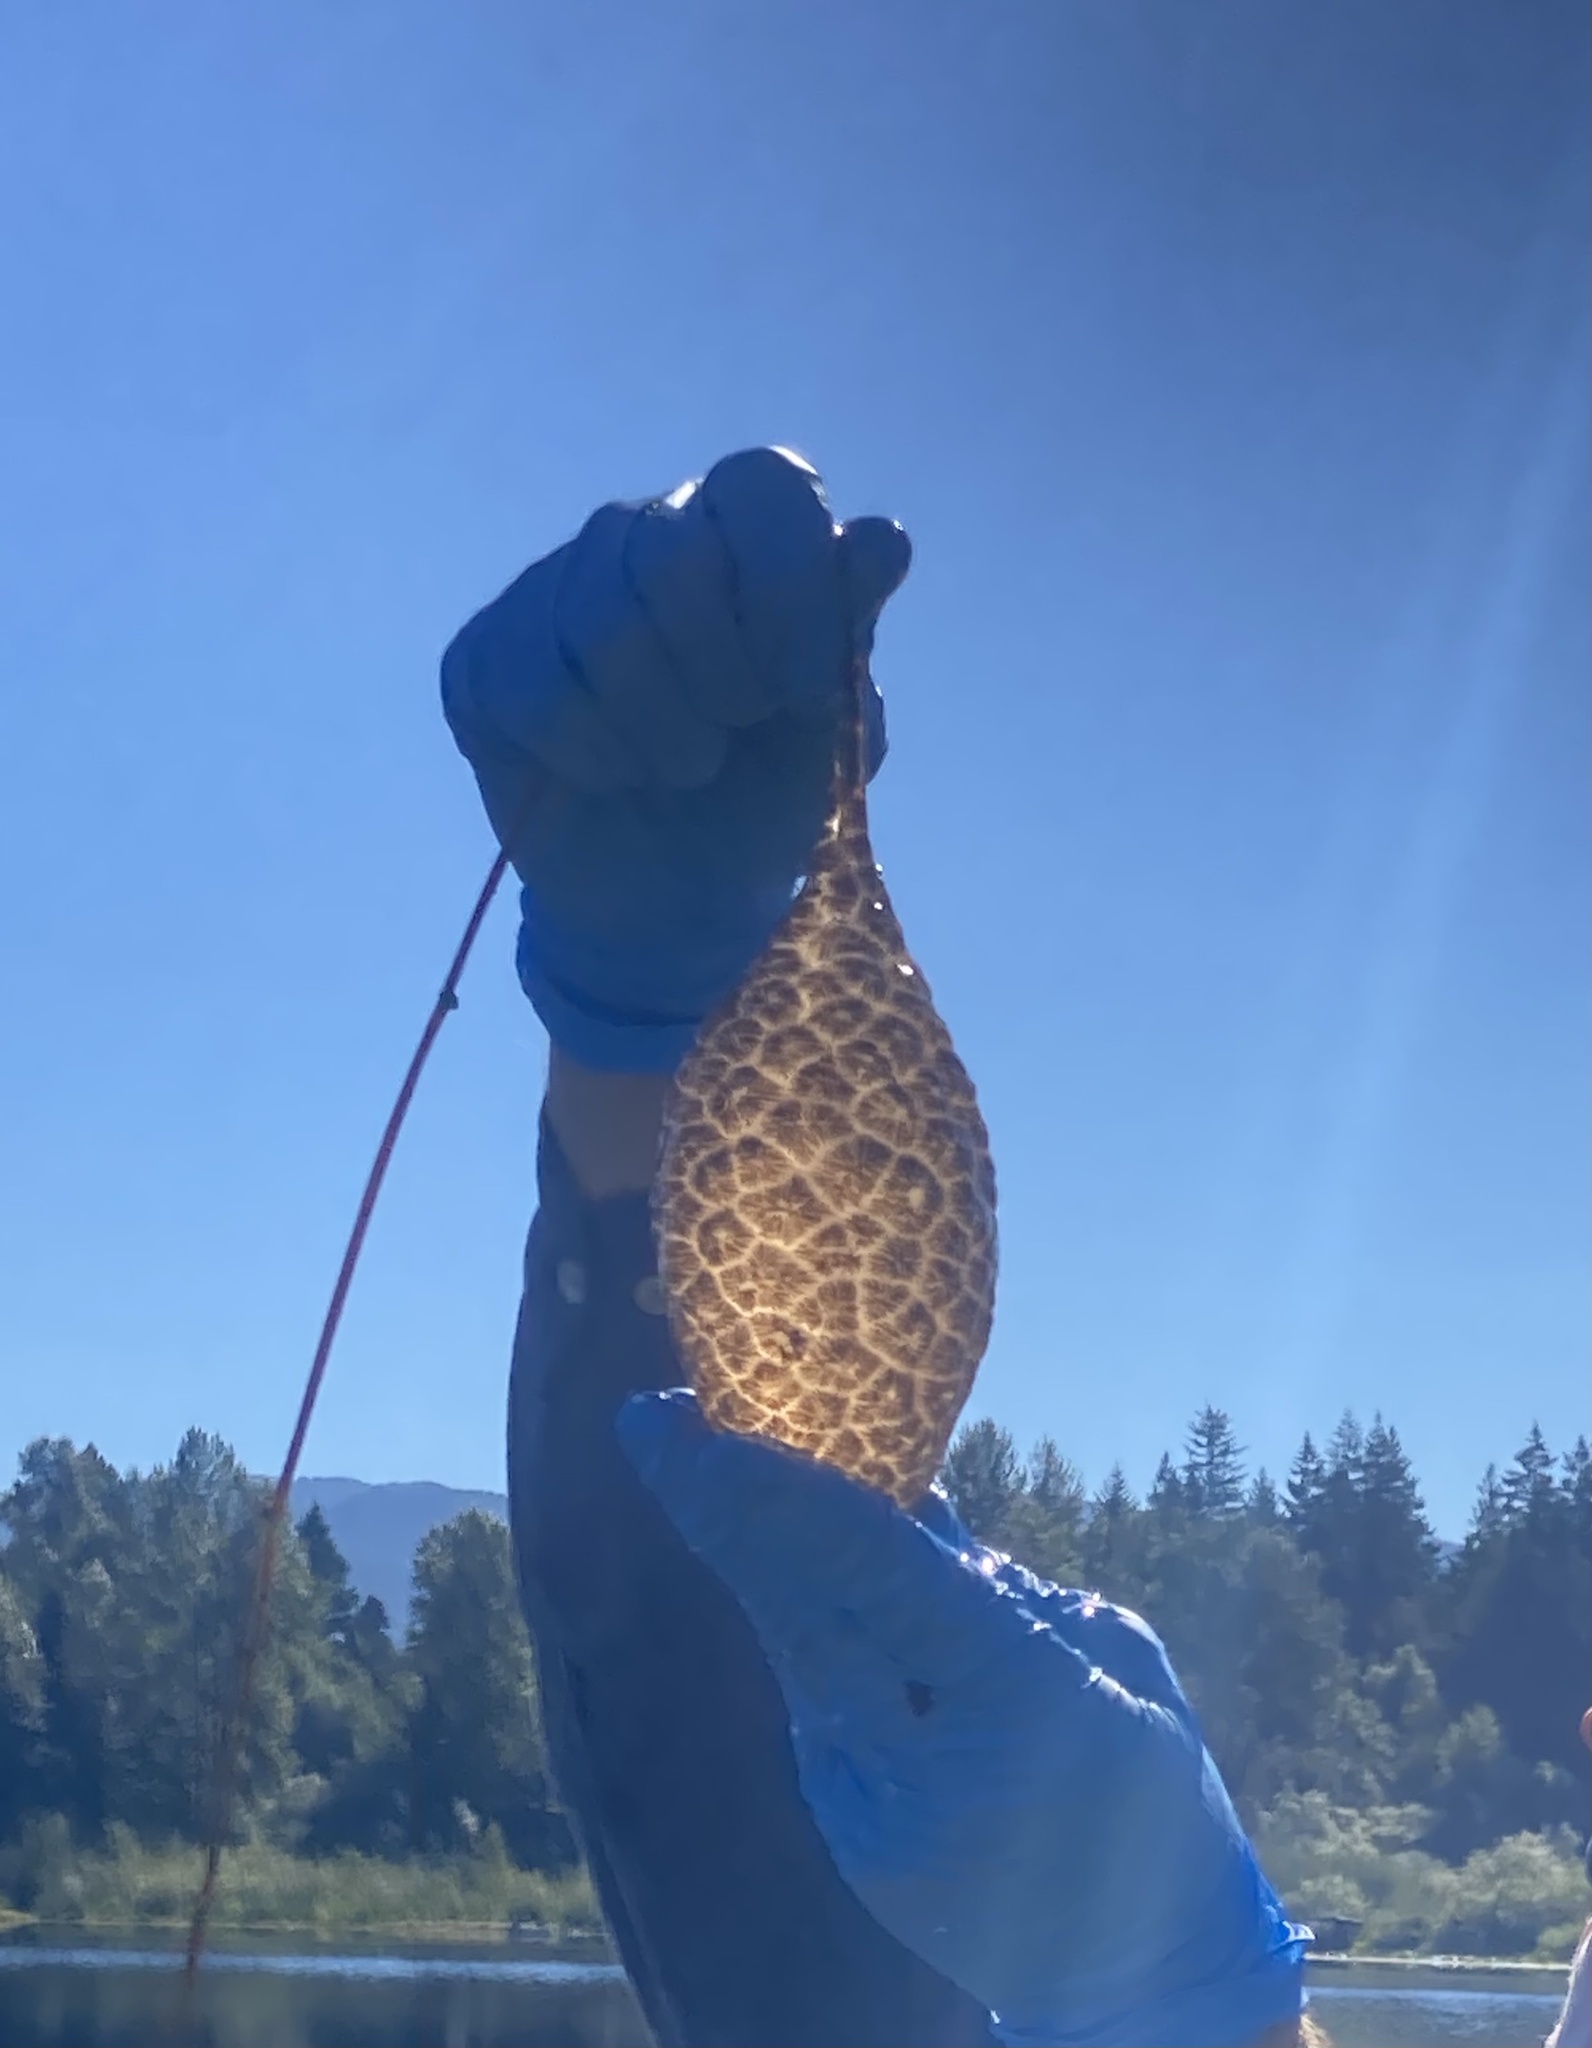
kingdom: Animalia
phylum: Bryozoa
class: Phylactolaemata
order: Plumatellida
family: Pectinatellidae
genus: Pectinatella
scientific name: Pectinatella magnifica
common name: Magnificent bryozoan
